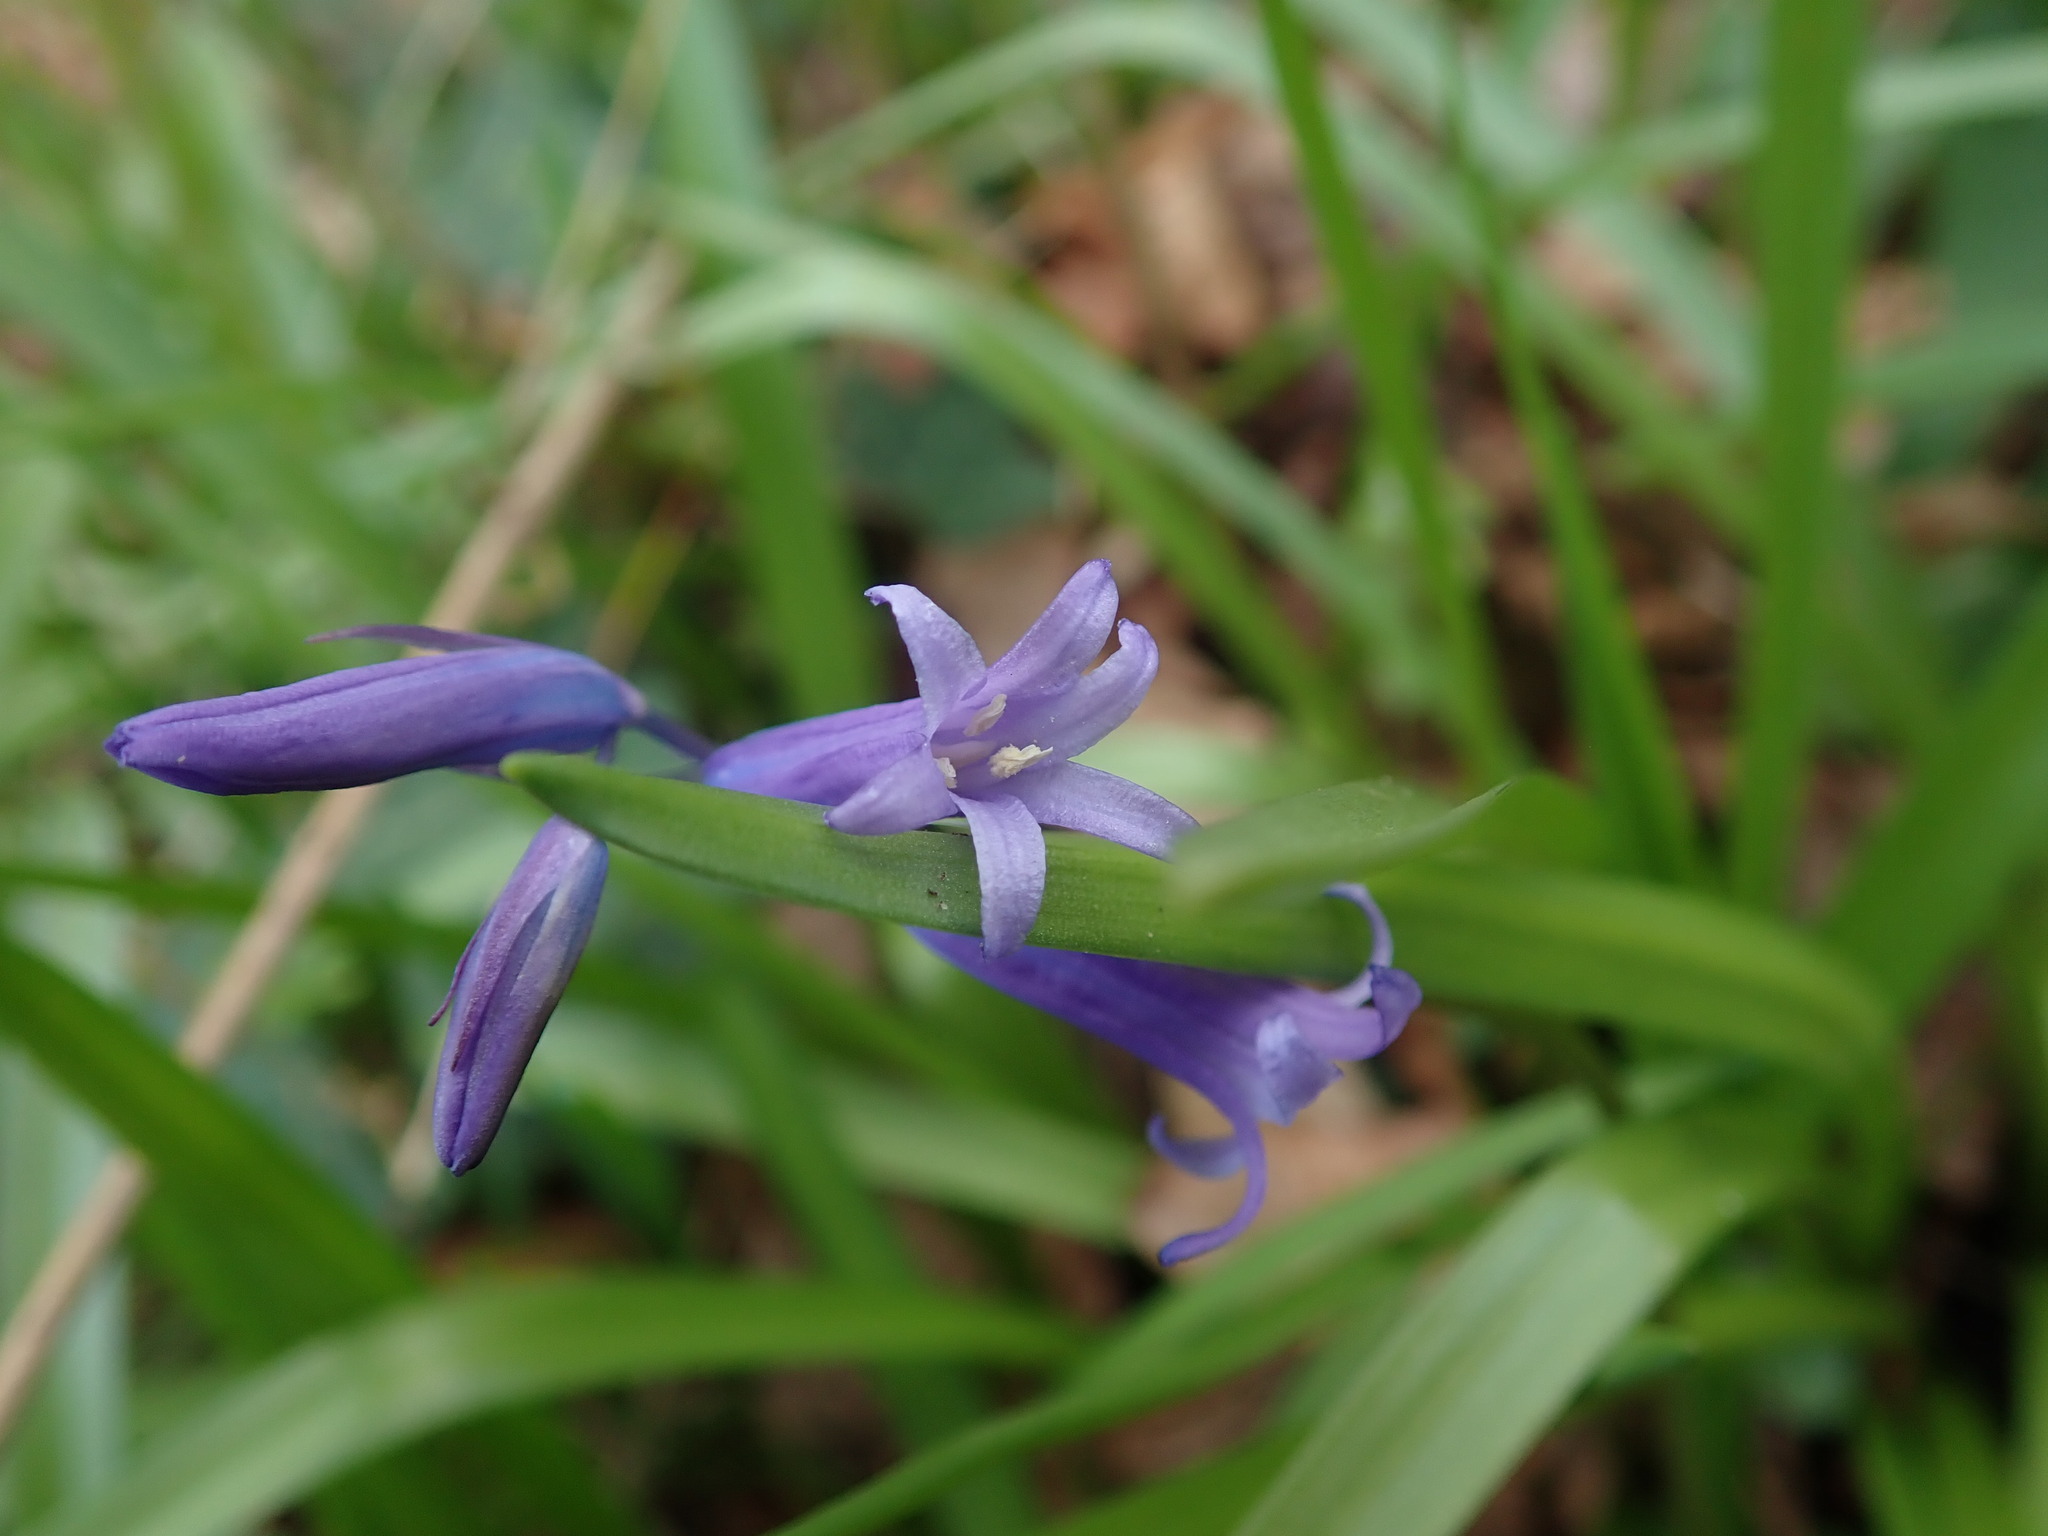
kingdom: Plantae
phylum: Tracheophyta
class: Liliopsida
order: Asparagales
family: Asparagaceae
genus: Hyacinthoides
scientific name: Hyacinthoides non-scripta
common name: Bluebell
